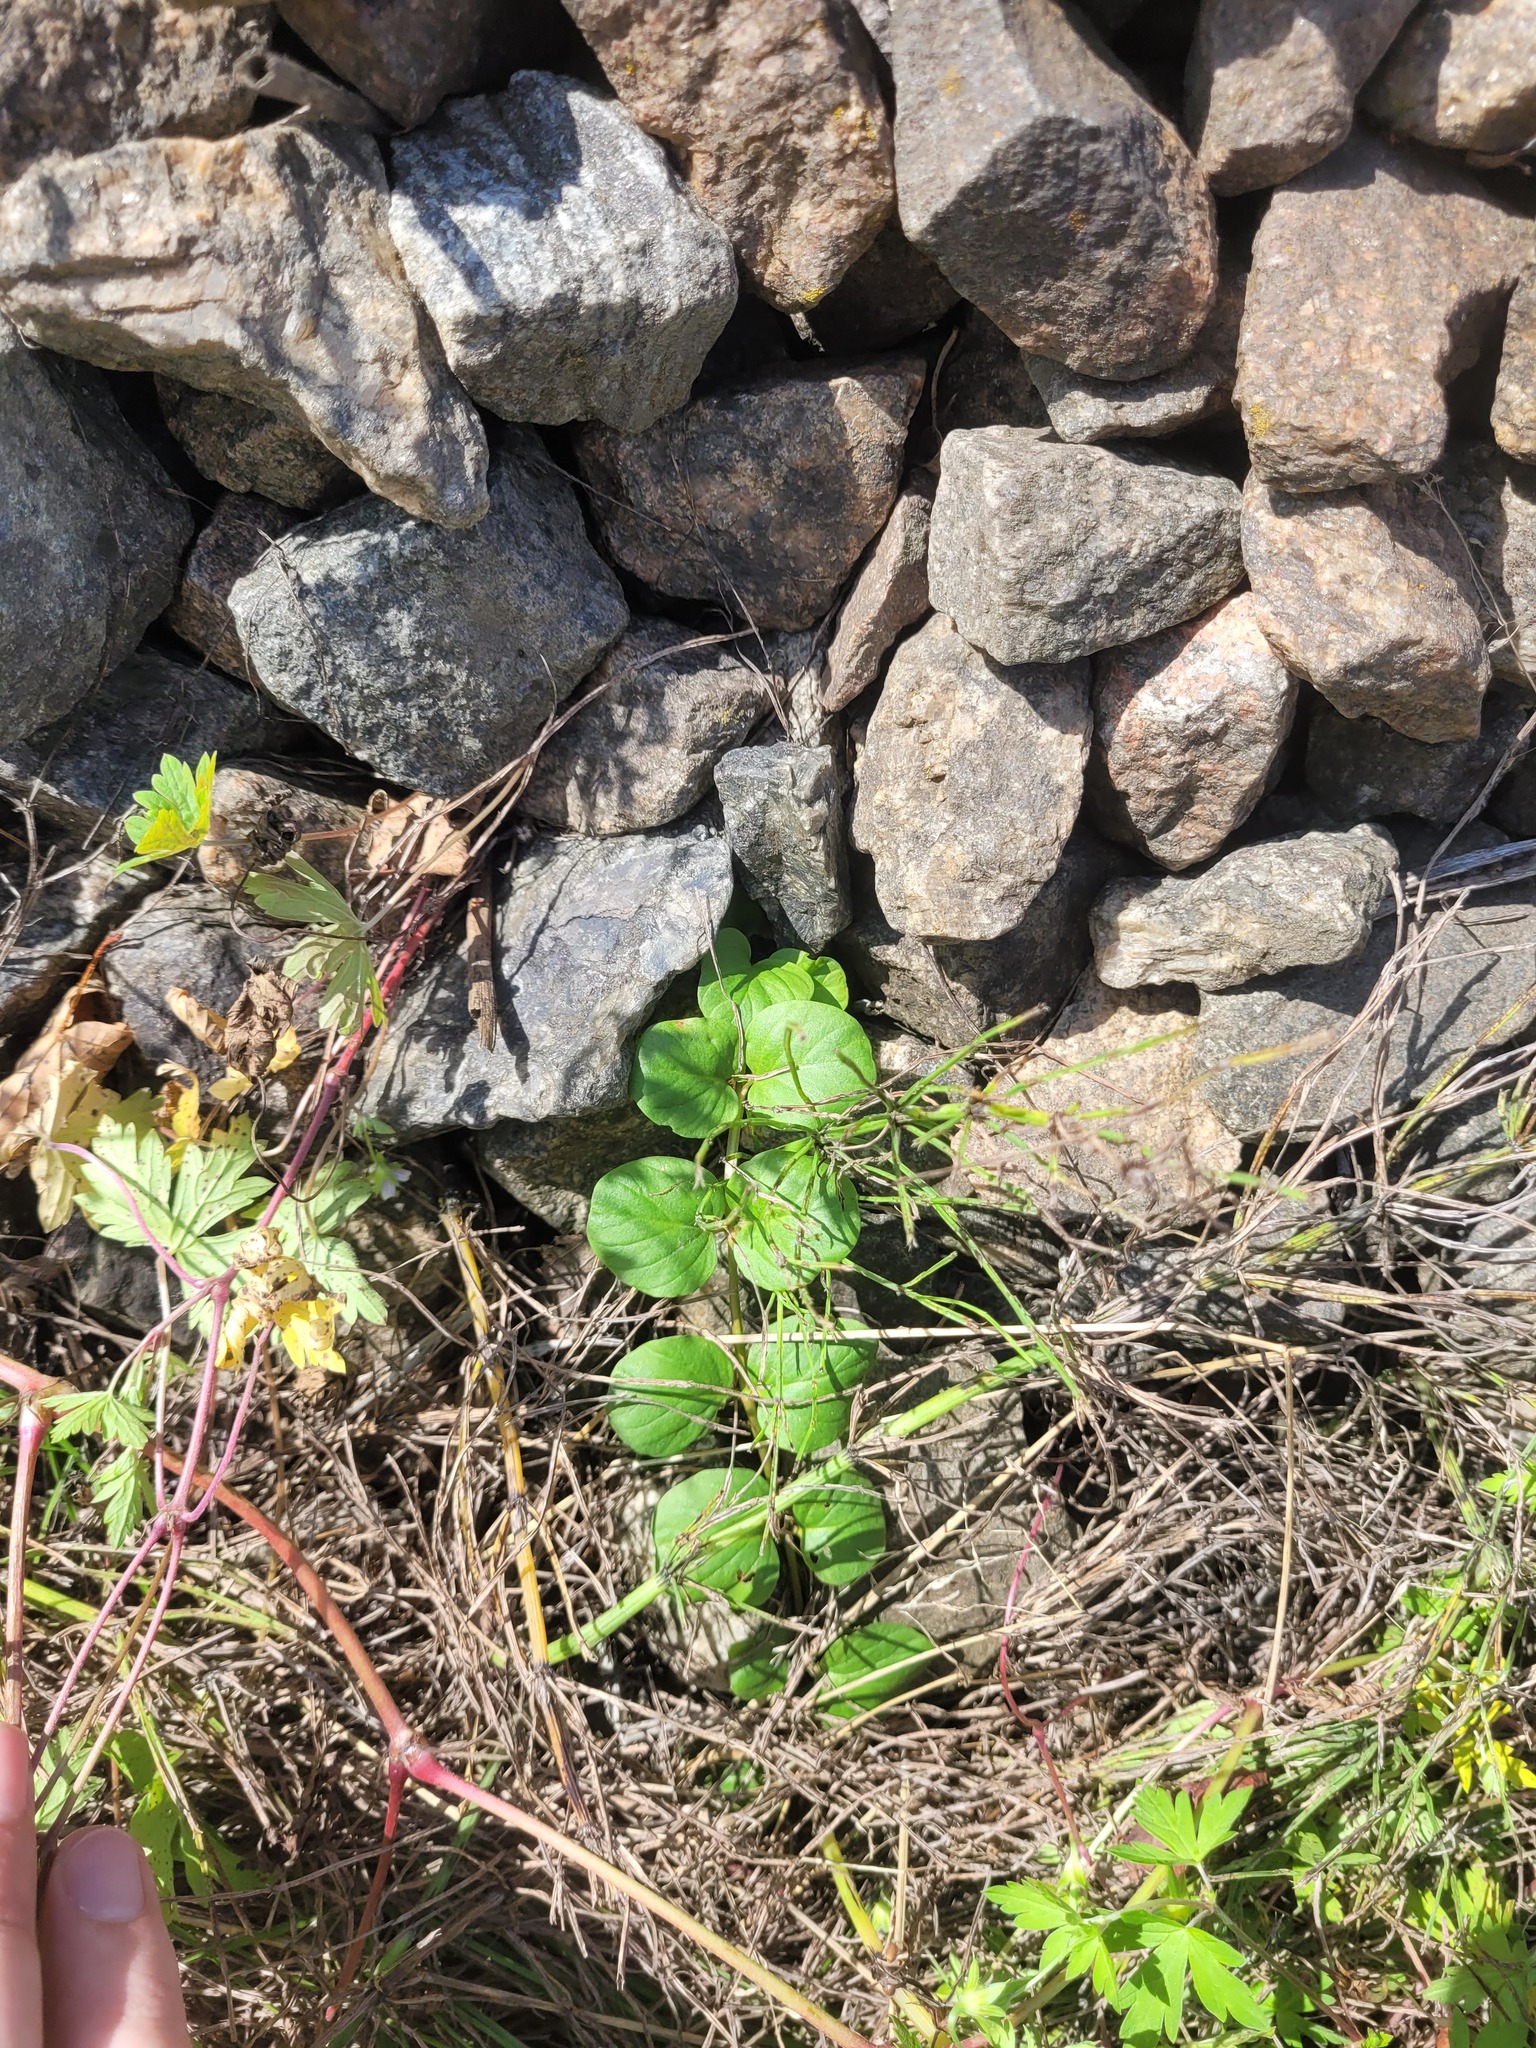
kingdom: Plantae
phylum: Tracheophyta
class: Magnoliopsida
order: Ericales
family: Primulaceae
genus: Lysimachia
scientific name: Lysimachia nummularia
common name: Moneywort
